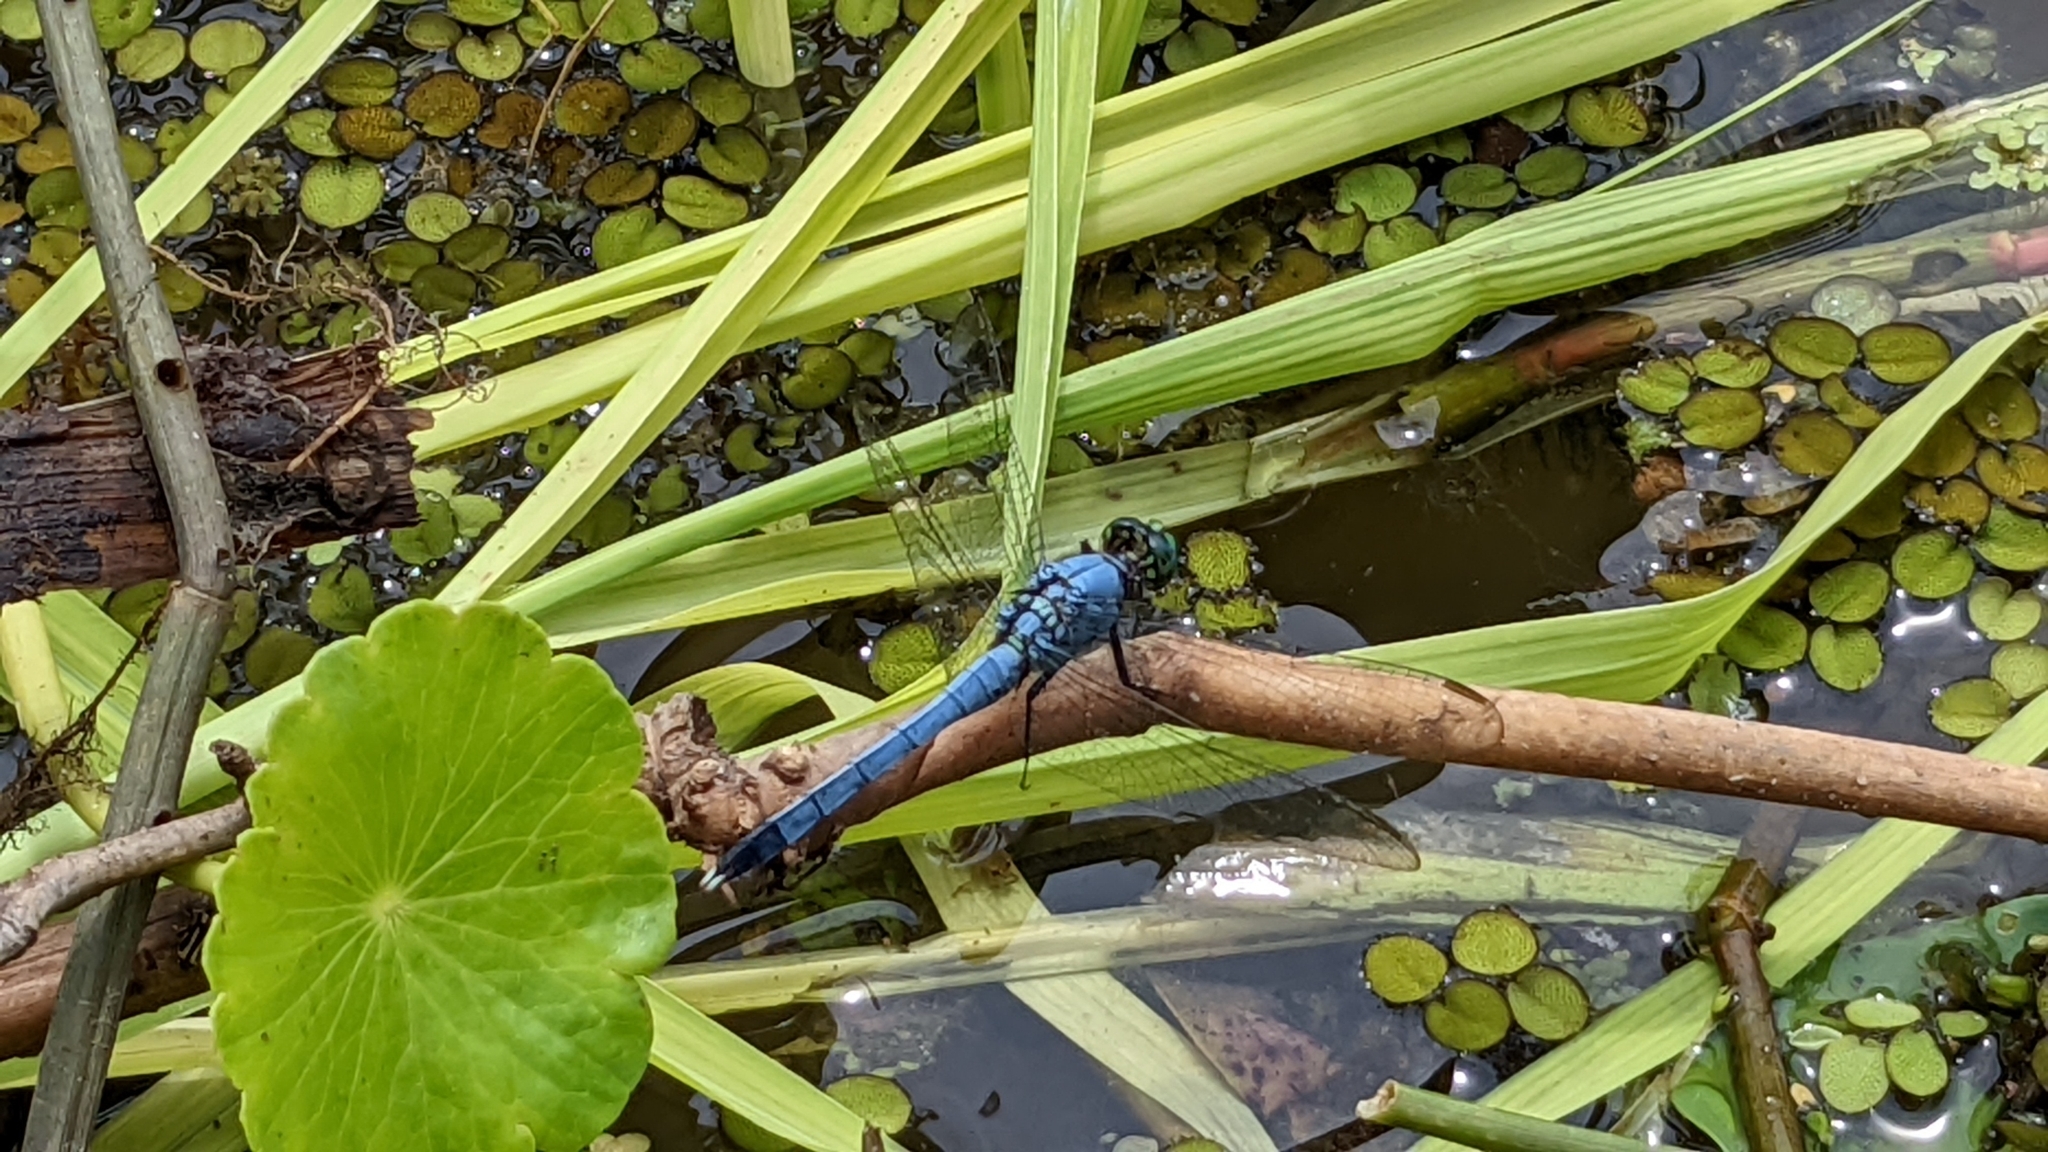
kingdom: Animalia
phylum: Arthropoda
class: Insecta
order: Odonata
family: Libellulidae
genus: Erythemis
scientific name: Erythemis simplicicollis
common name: Eastern pondhawk
